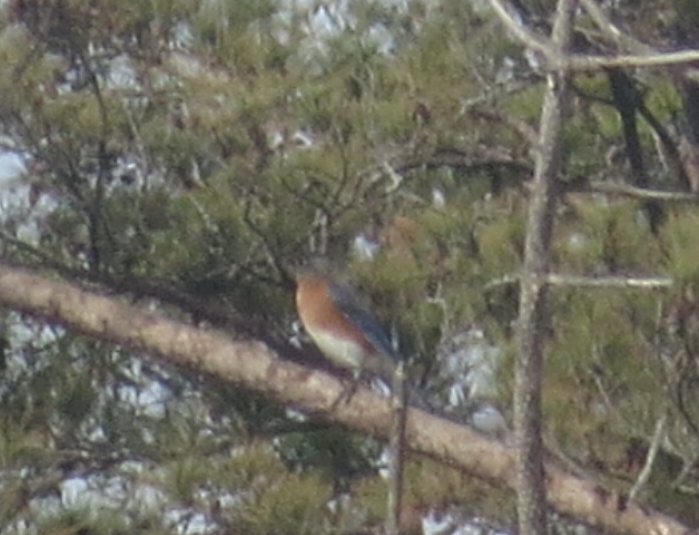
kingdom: Animalia
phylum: Chordata
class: Aves
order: Passeriformes
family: Turdidae
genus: Sialia
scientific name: Sialia sialis
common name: Eastern bluebird
